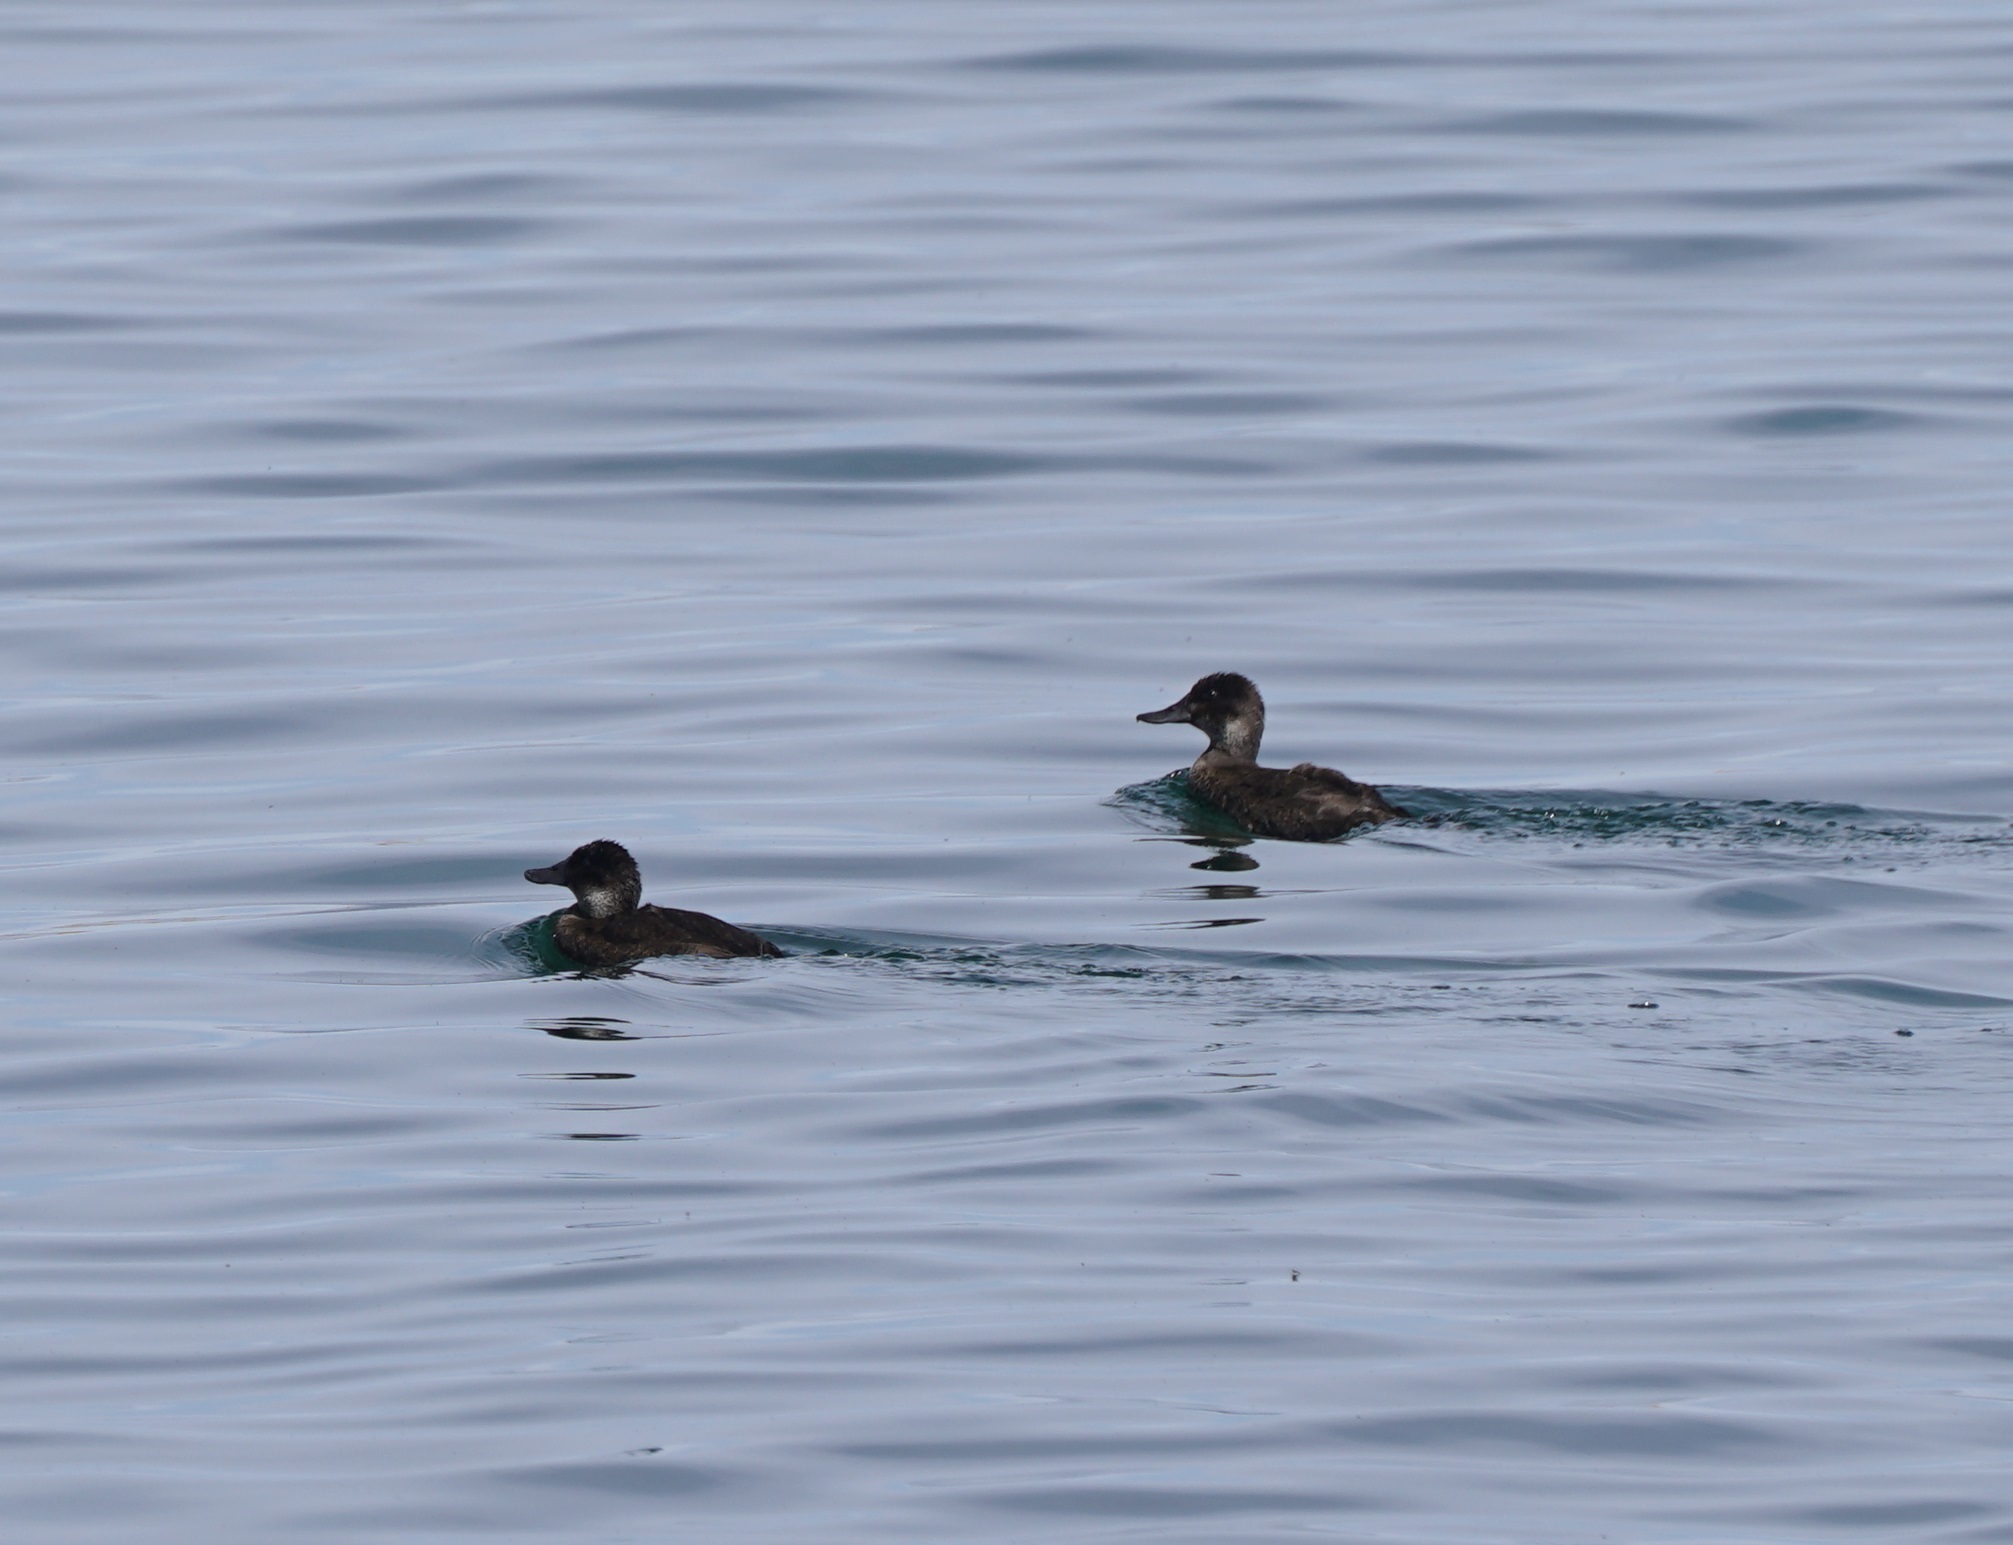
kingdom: Animalia
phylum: Chordata
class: Aves
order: Anseriformes
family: Anatidae
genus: Oxyura
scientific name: Oxyura ferruginea
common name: Andean duck
